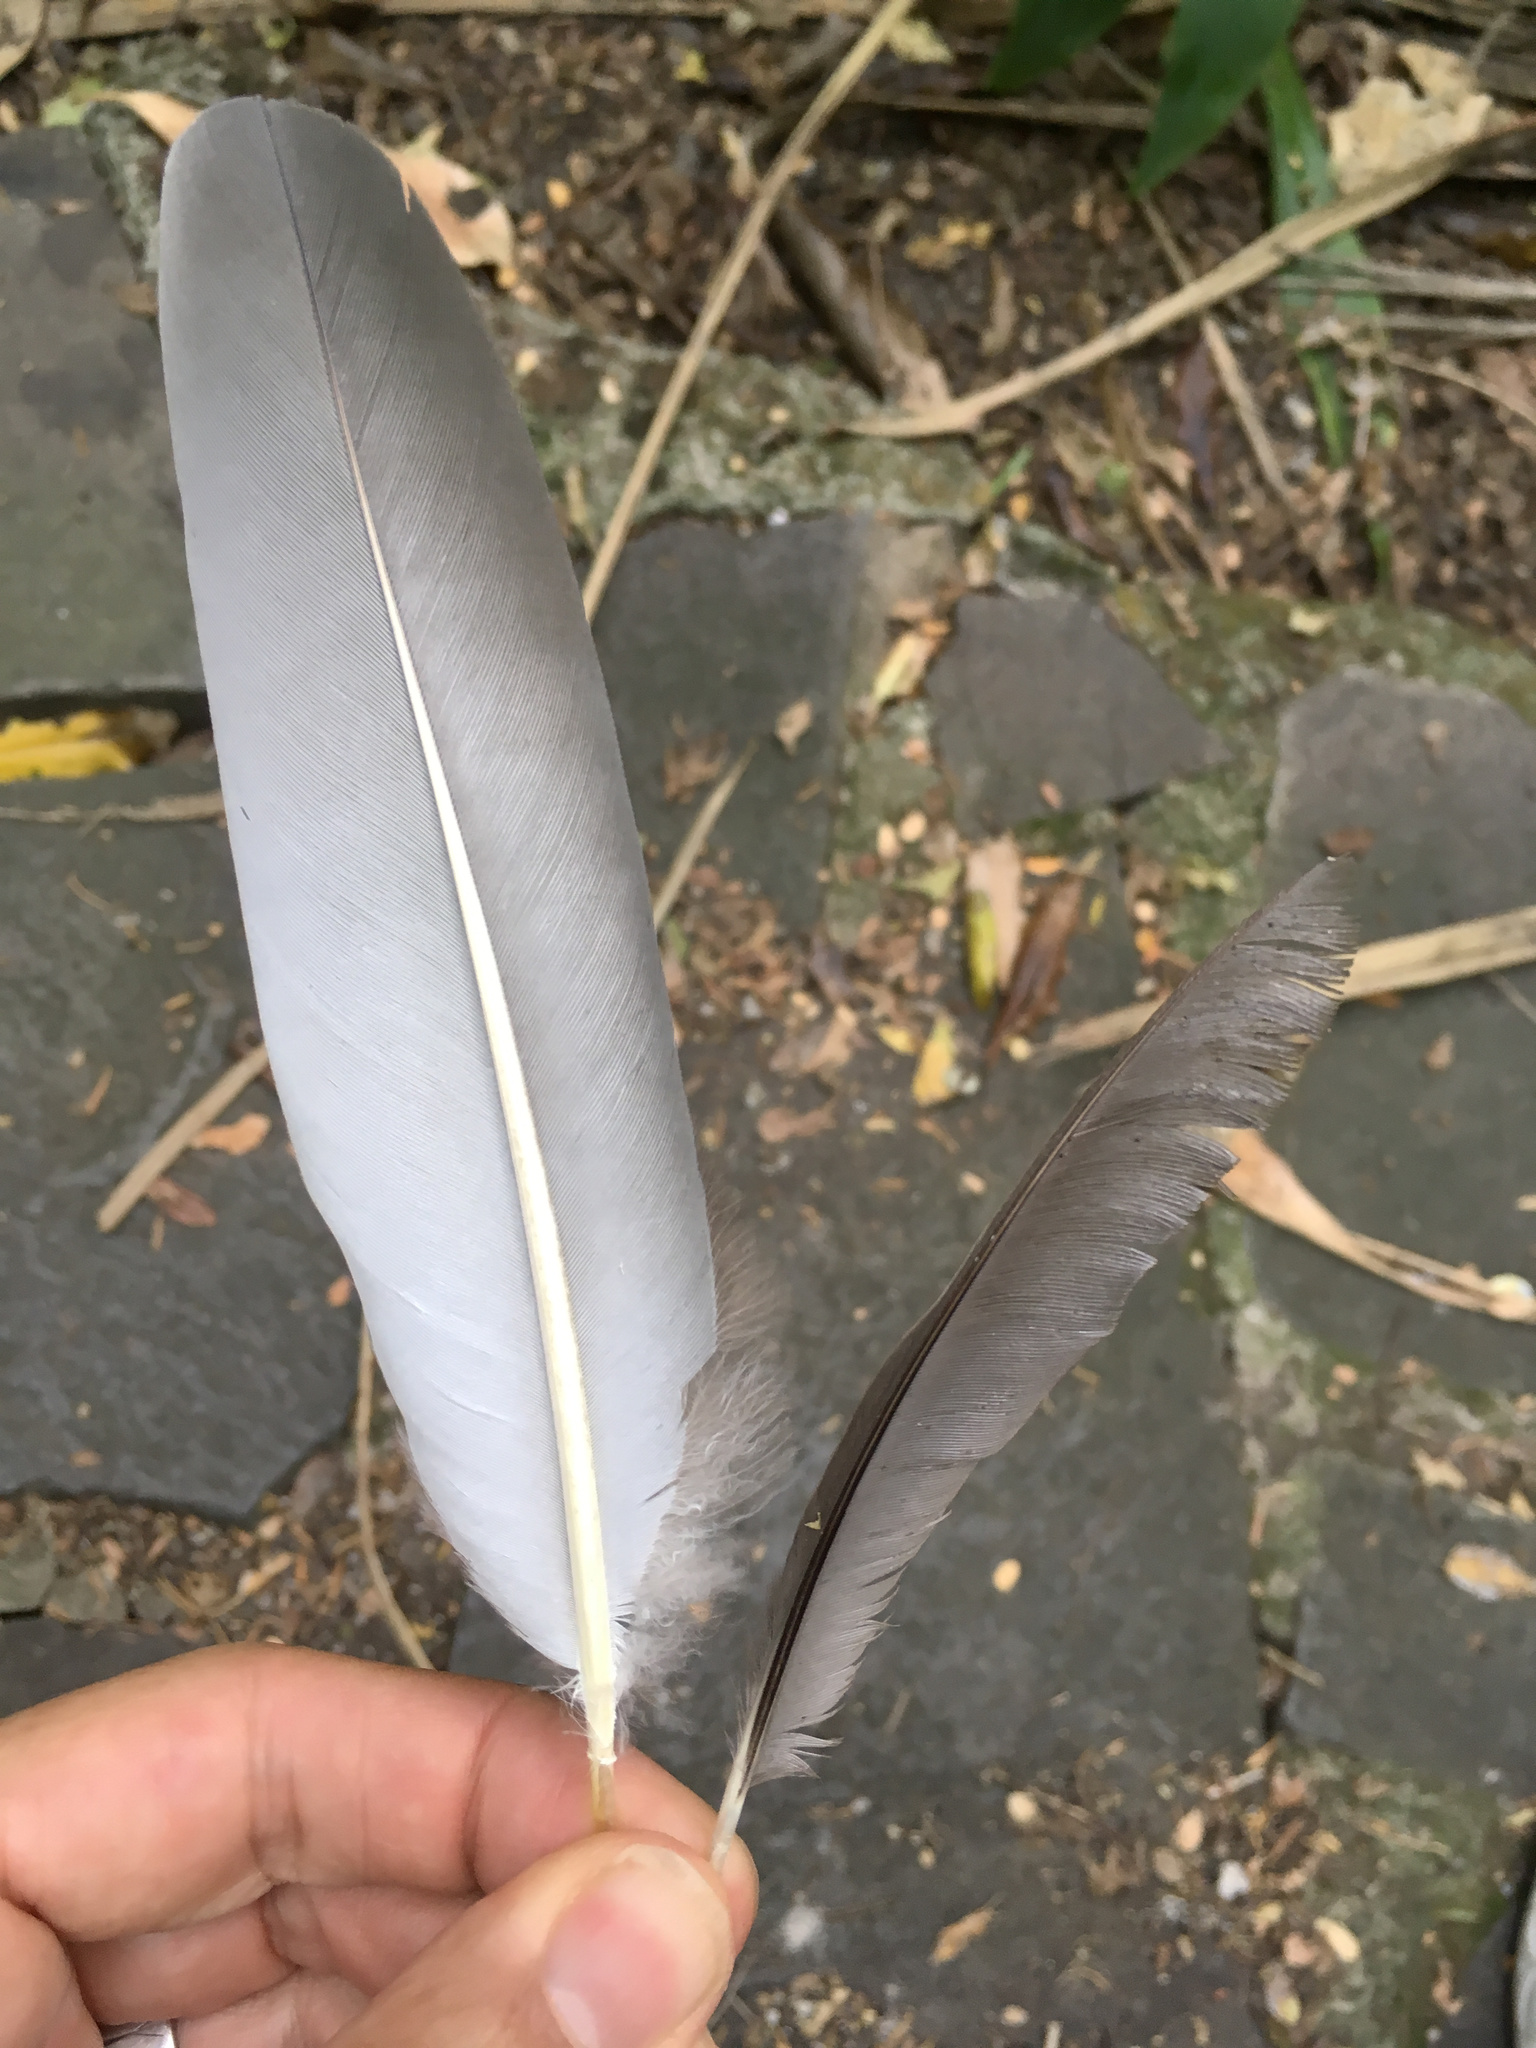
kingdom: Animalia
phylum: Chordata
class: Aves
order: Columbiformes
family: Columbidae
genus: Hemiphaga
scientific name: Hemiphaga novaeseelandiae
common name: New zealand pigeon
